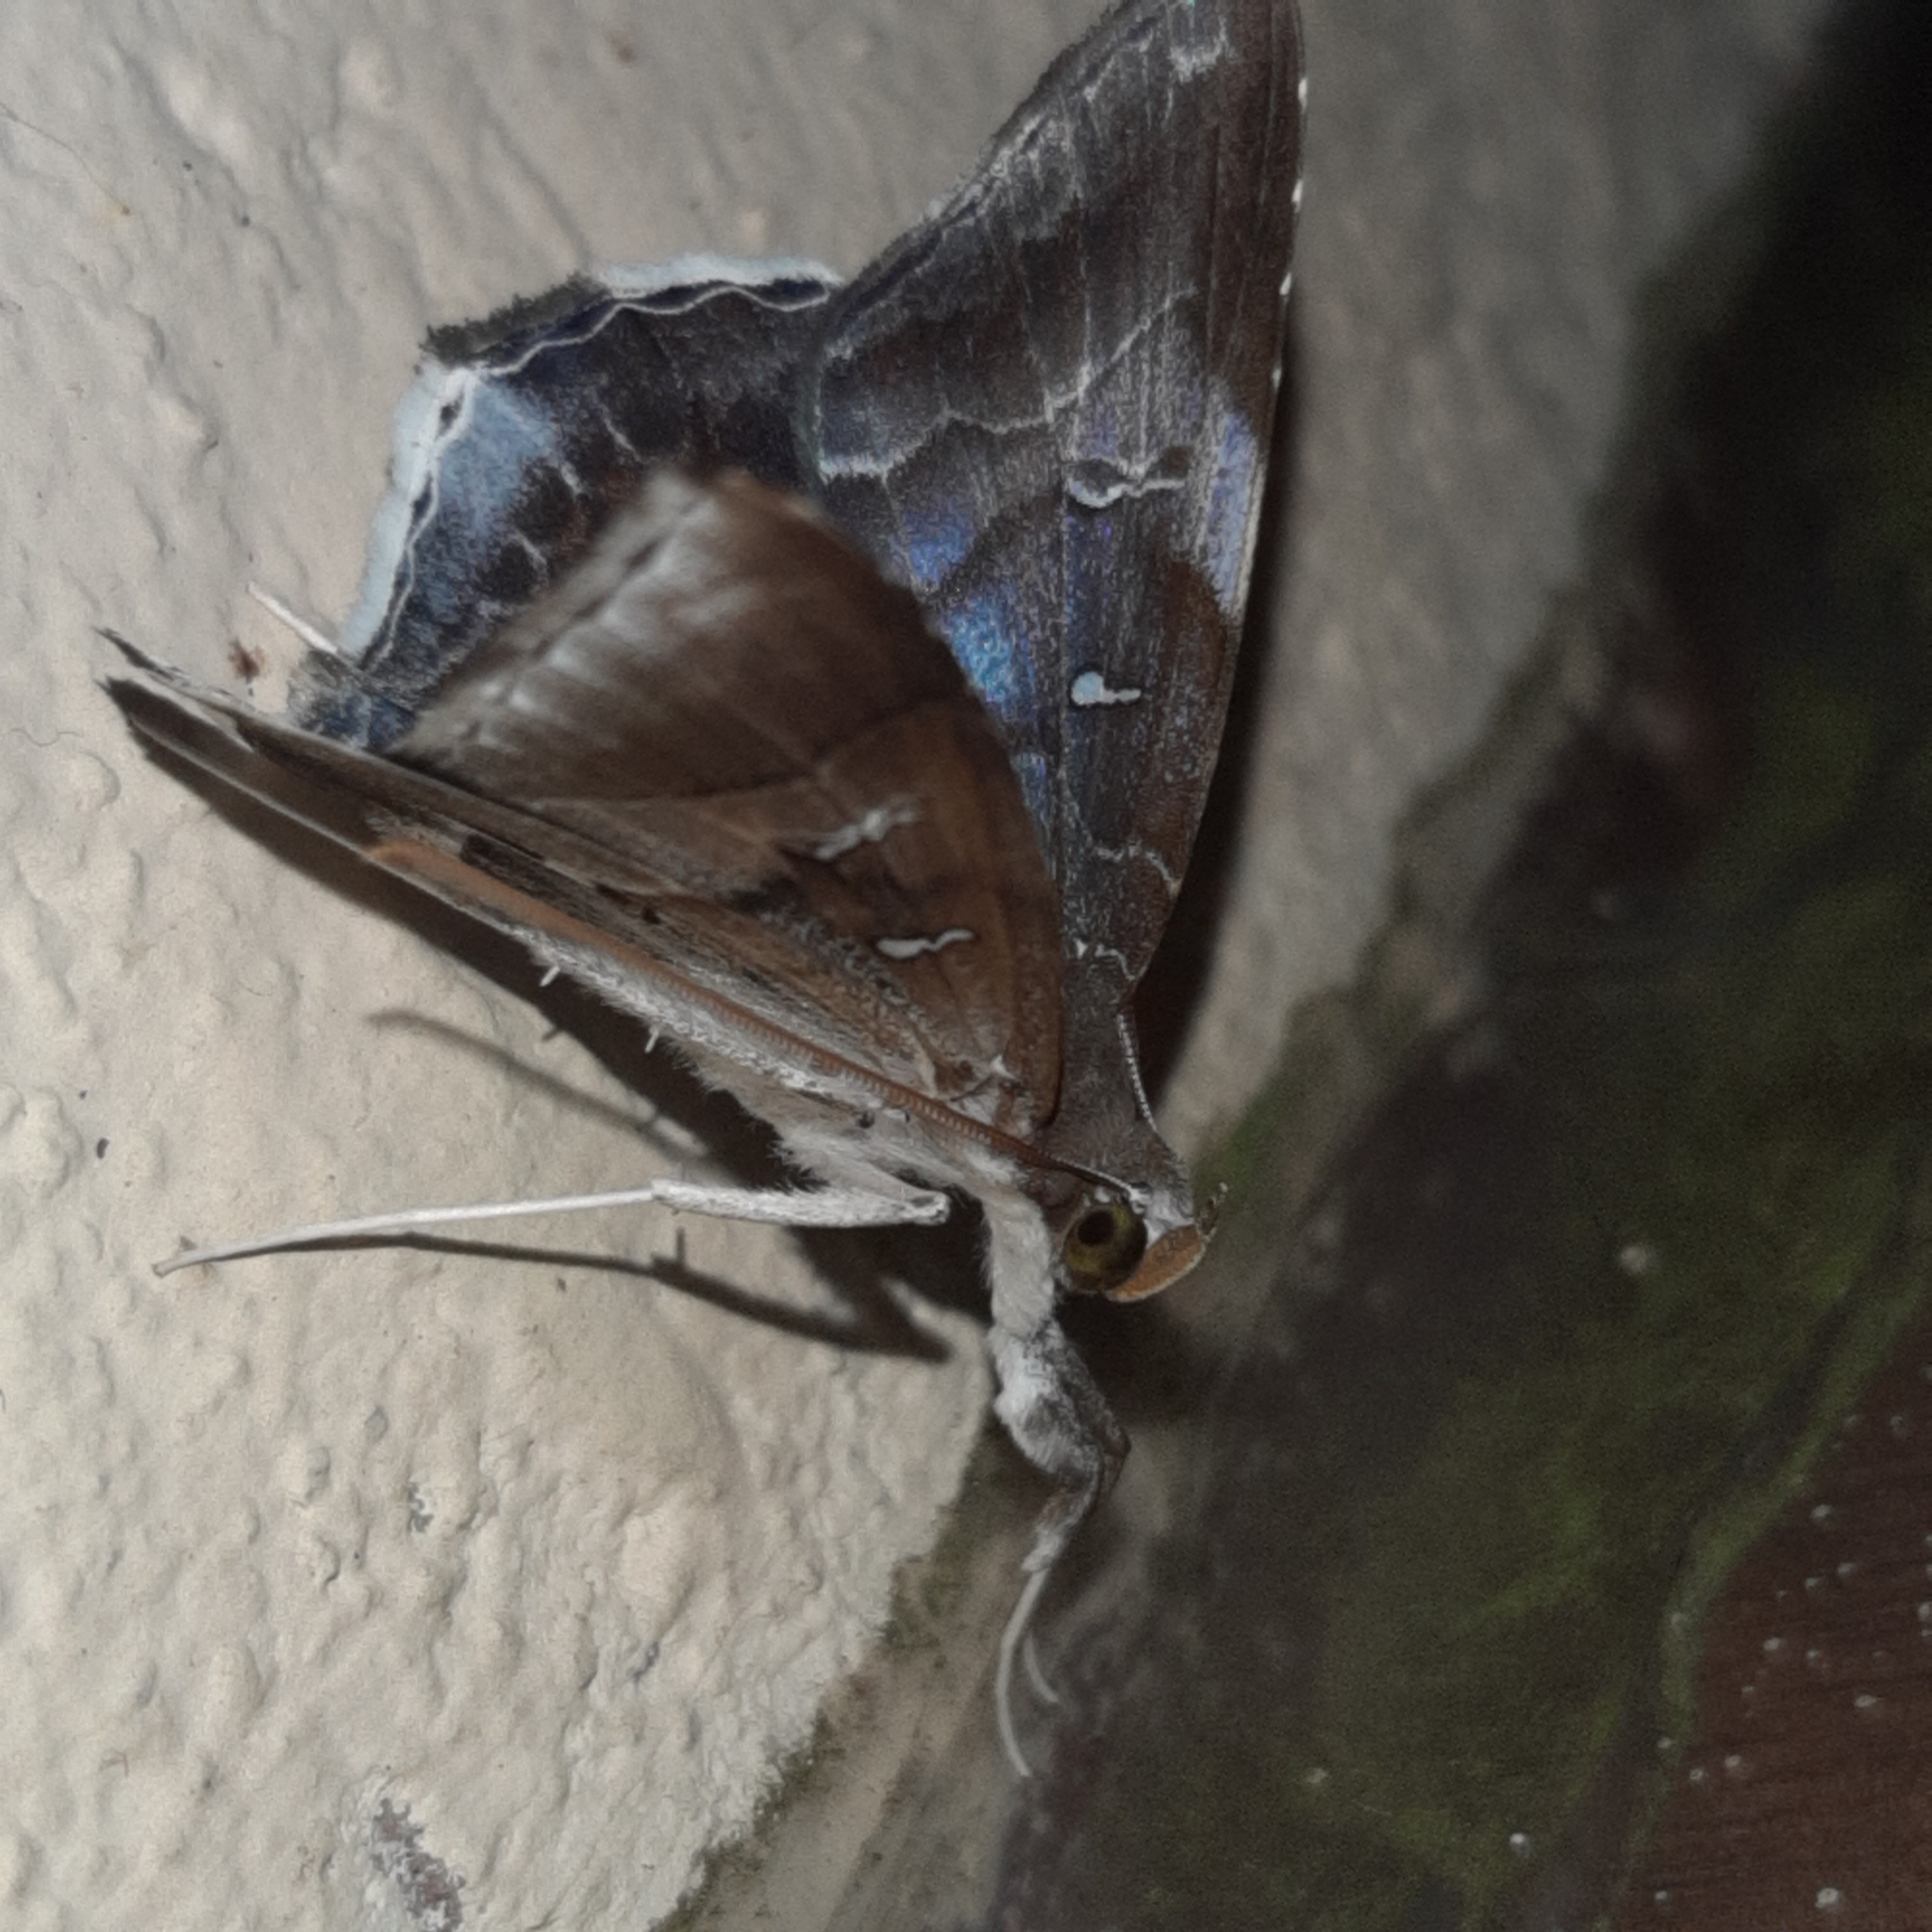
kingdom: Animalia
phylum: Arthropoda
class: Insecta
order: Lepidoptera
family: Erebidae
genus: Macrodes
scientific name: Macrodes cynara
